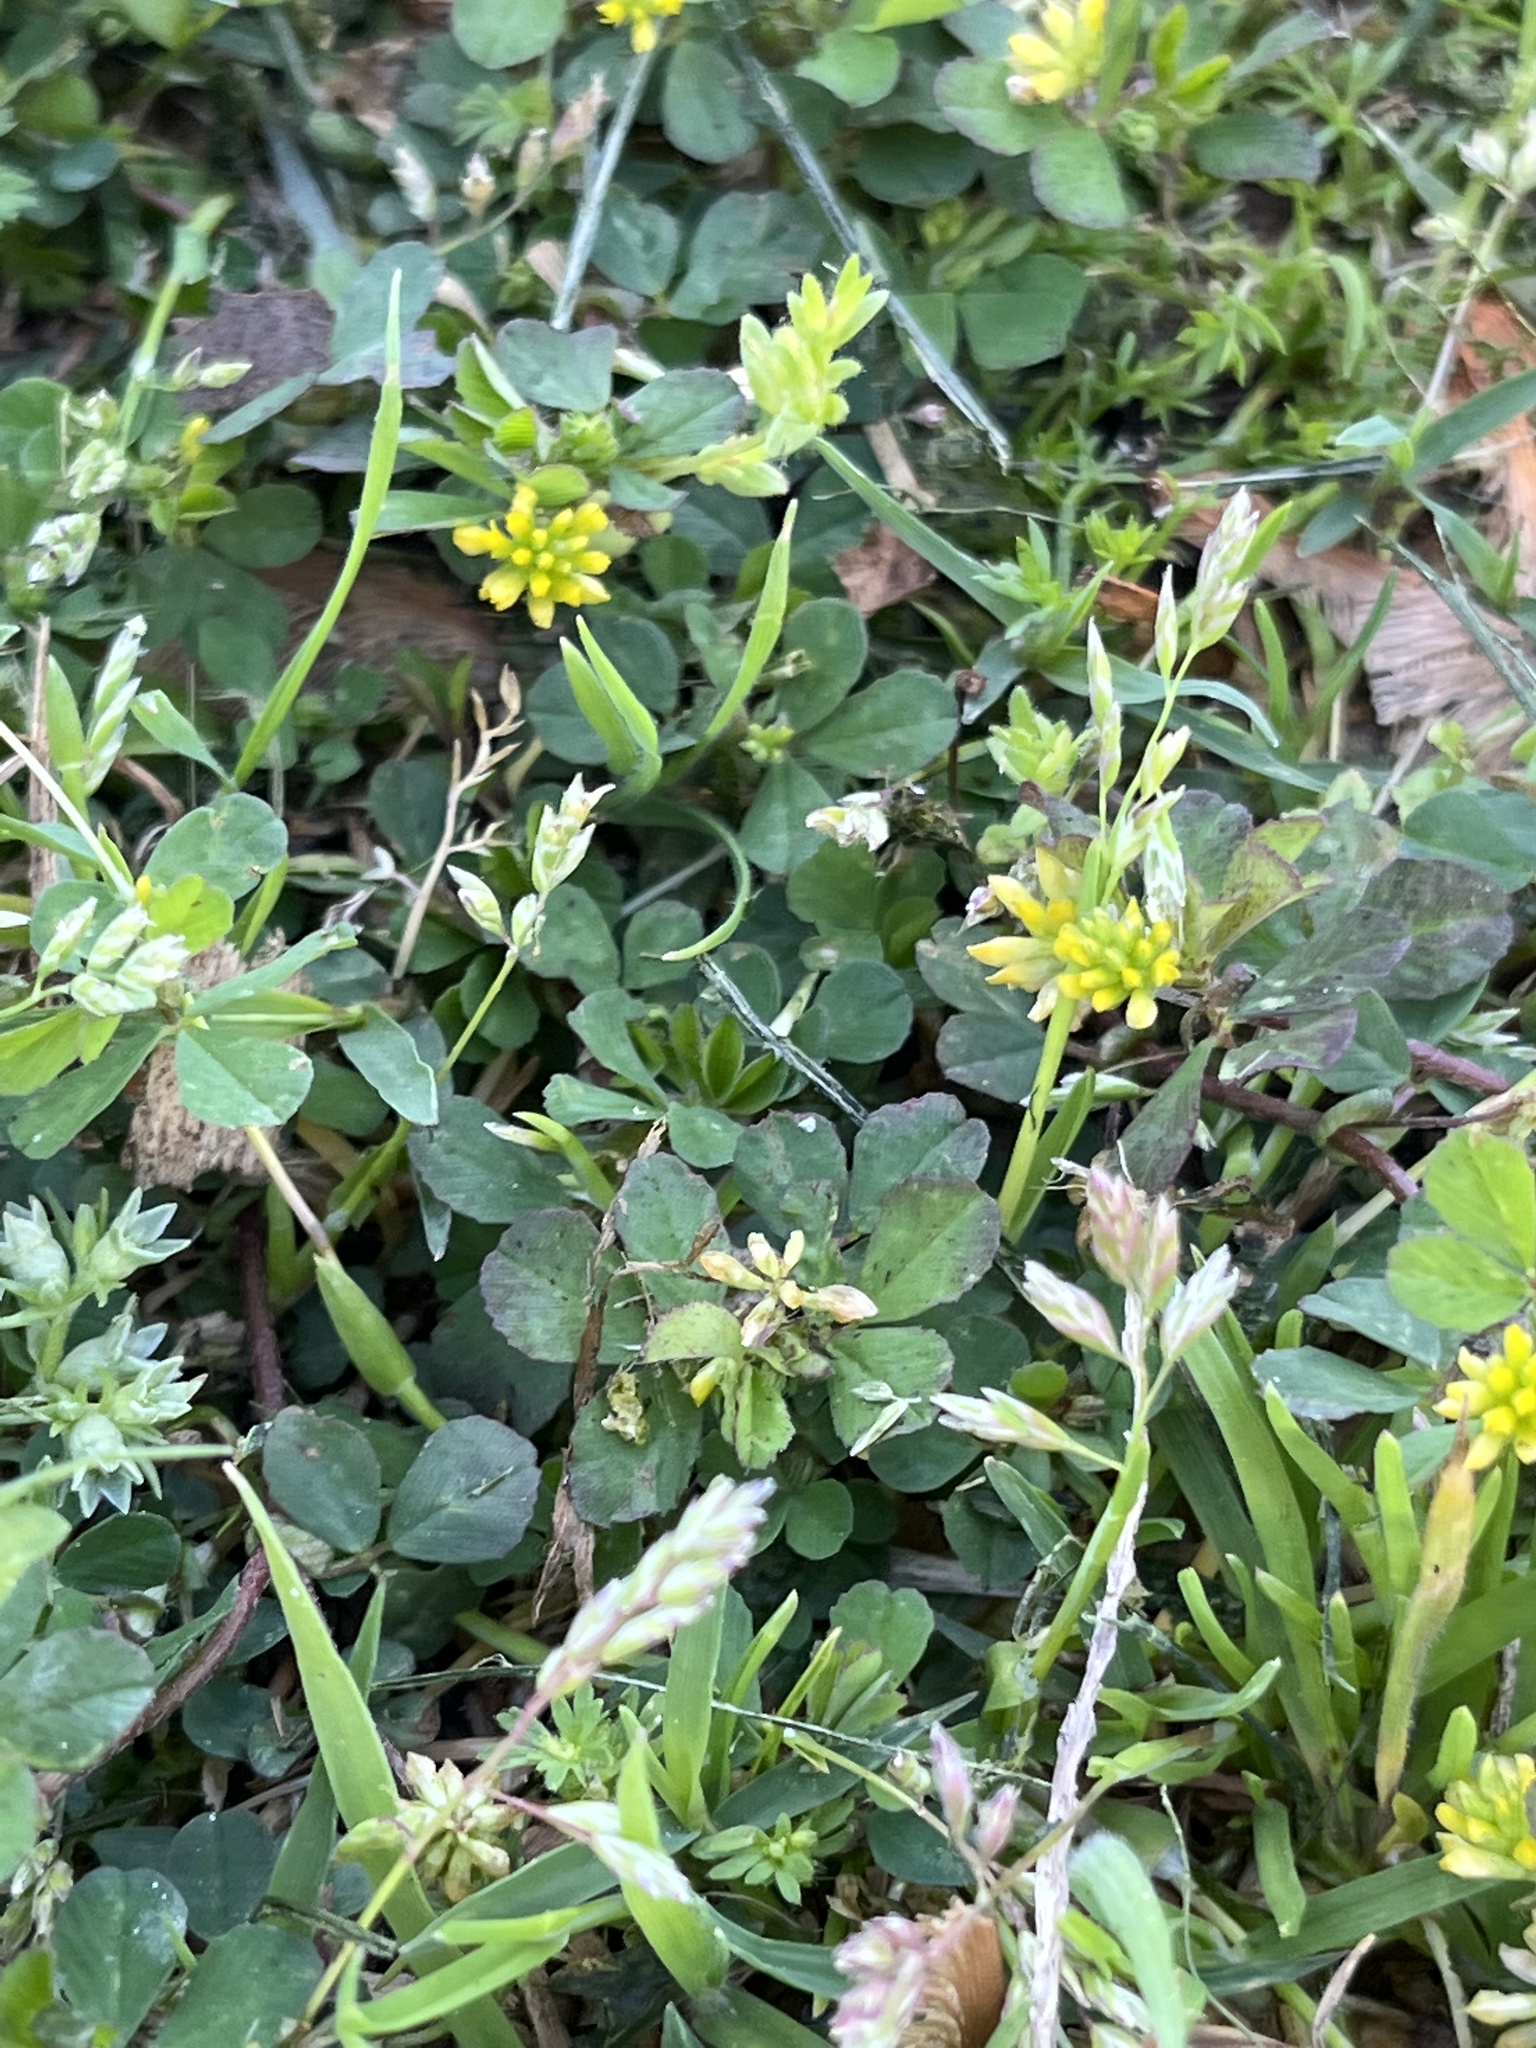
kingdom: Plantae
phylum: Tracheophyta
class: Magnoliopsida
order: Fabales
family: Fabaceae
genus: Trifolium
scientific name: Trifolium dubium
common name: Suckling clover
